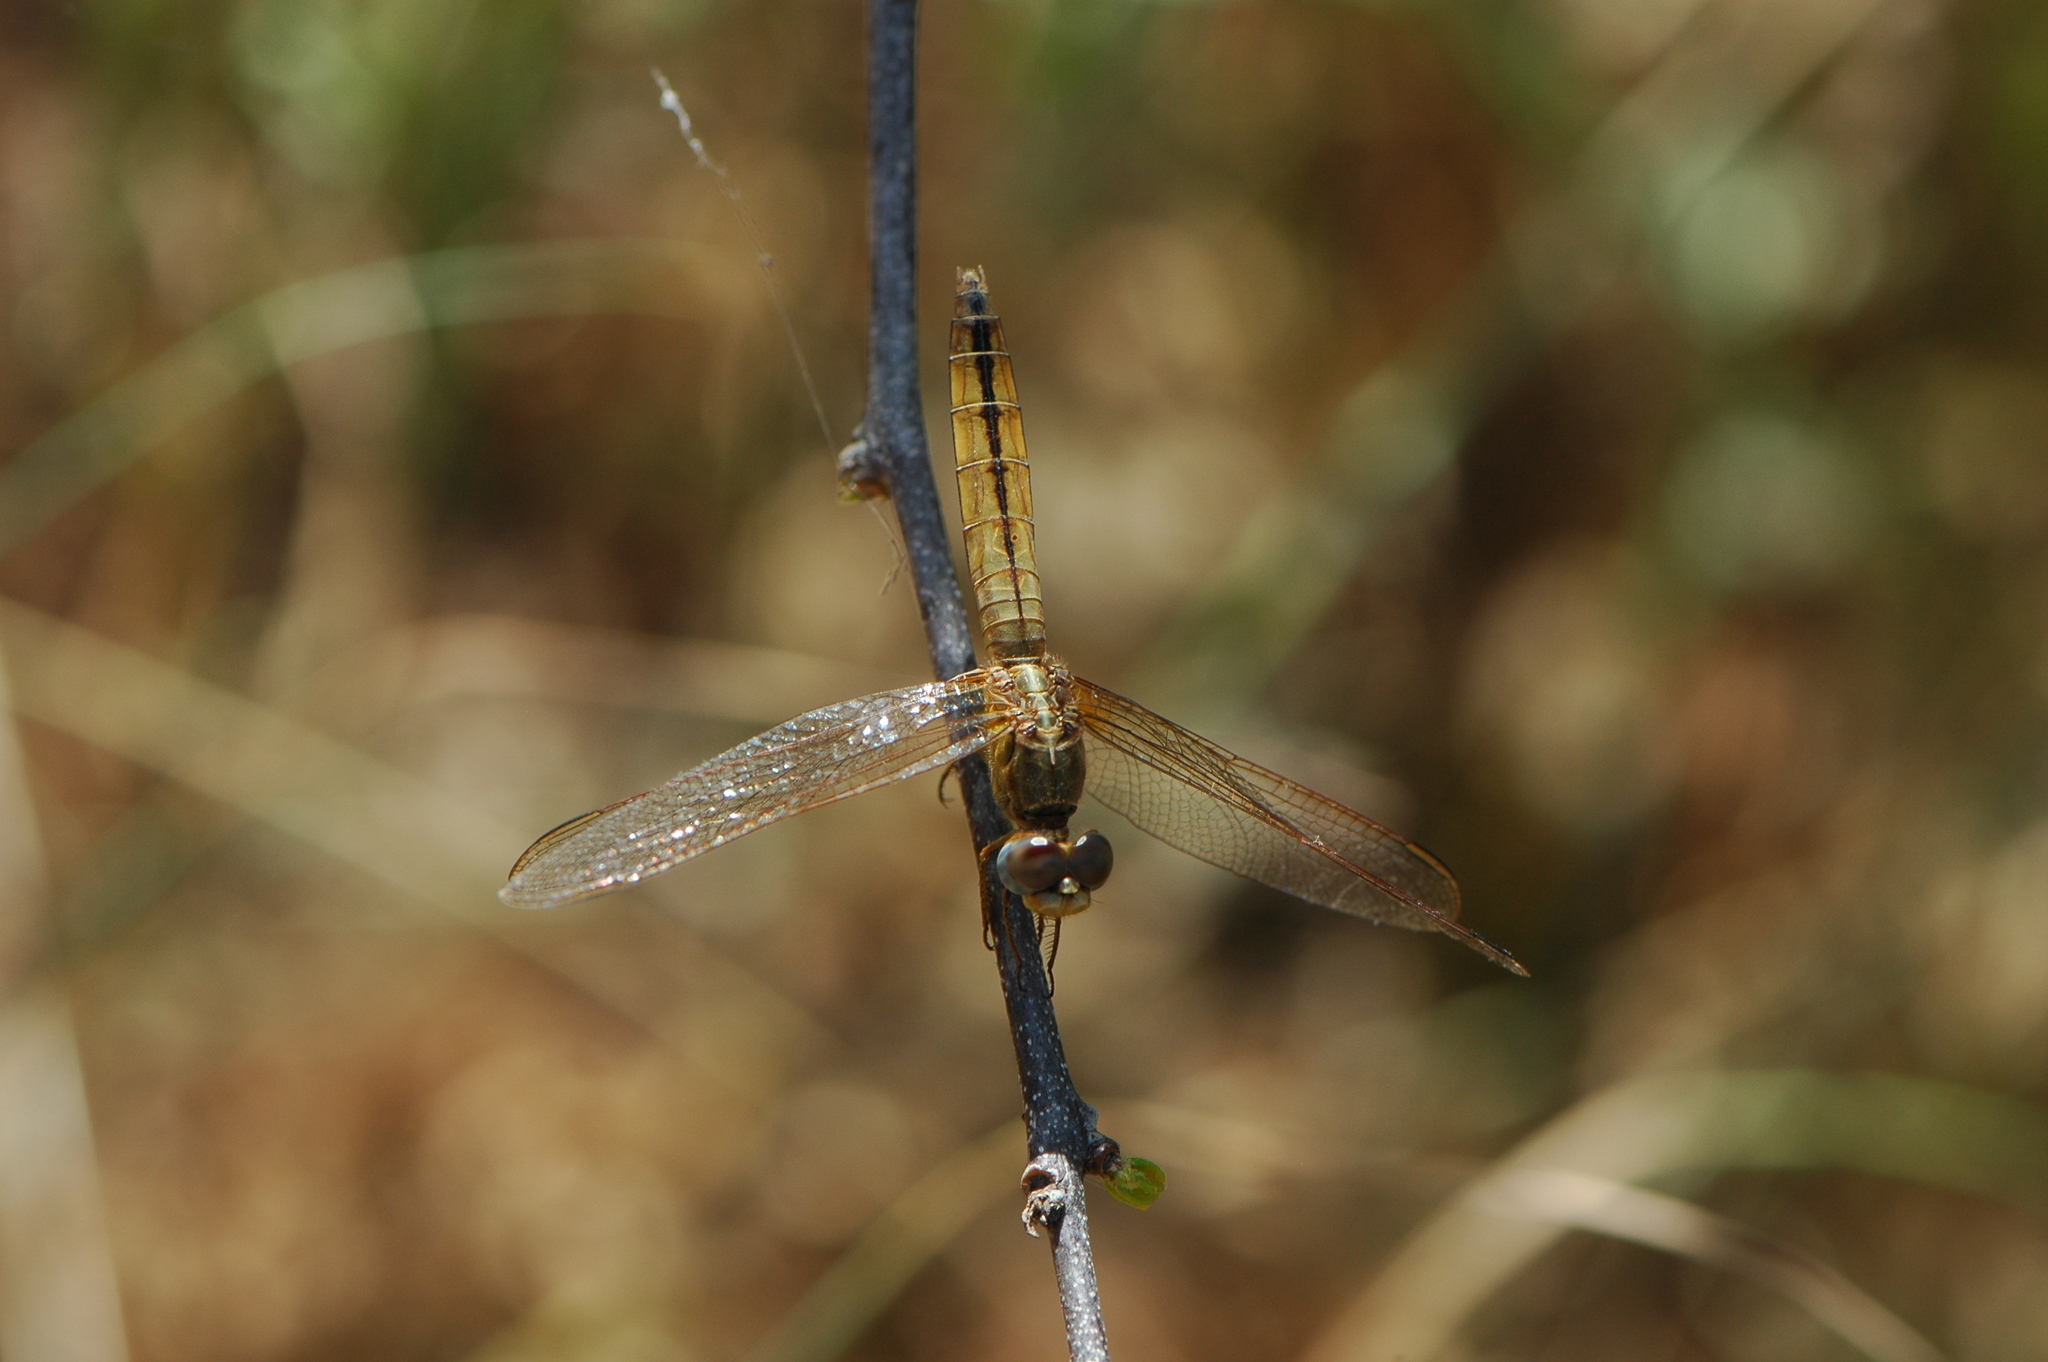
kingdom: Animalia
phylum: Arthropoda
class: Insecta
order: Odonata
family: Libellulidae
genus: Crocothemis
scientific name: Crocothemis erythraea
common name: Scarlet dragonfly
